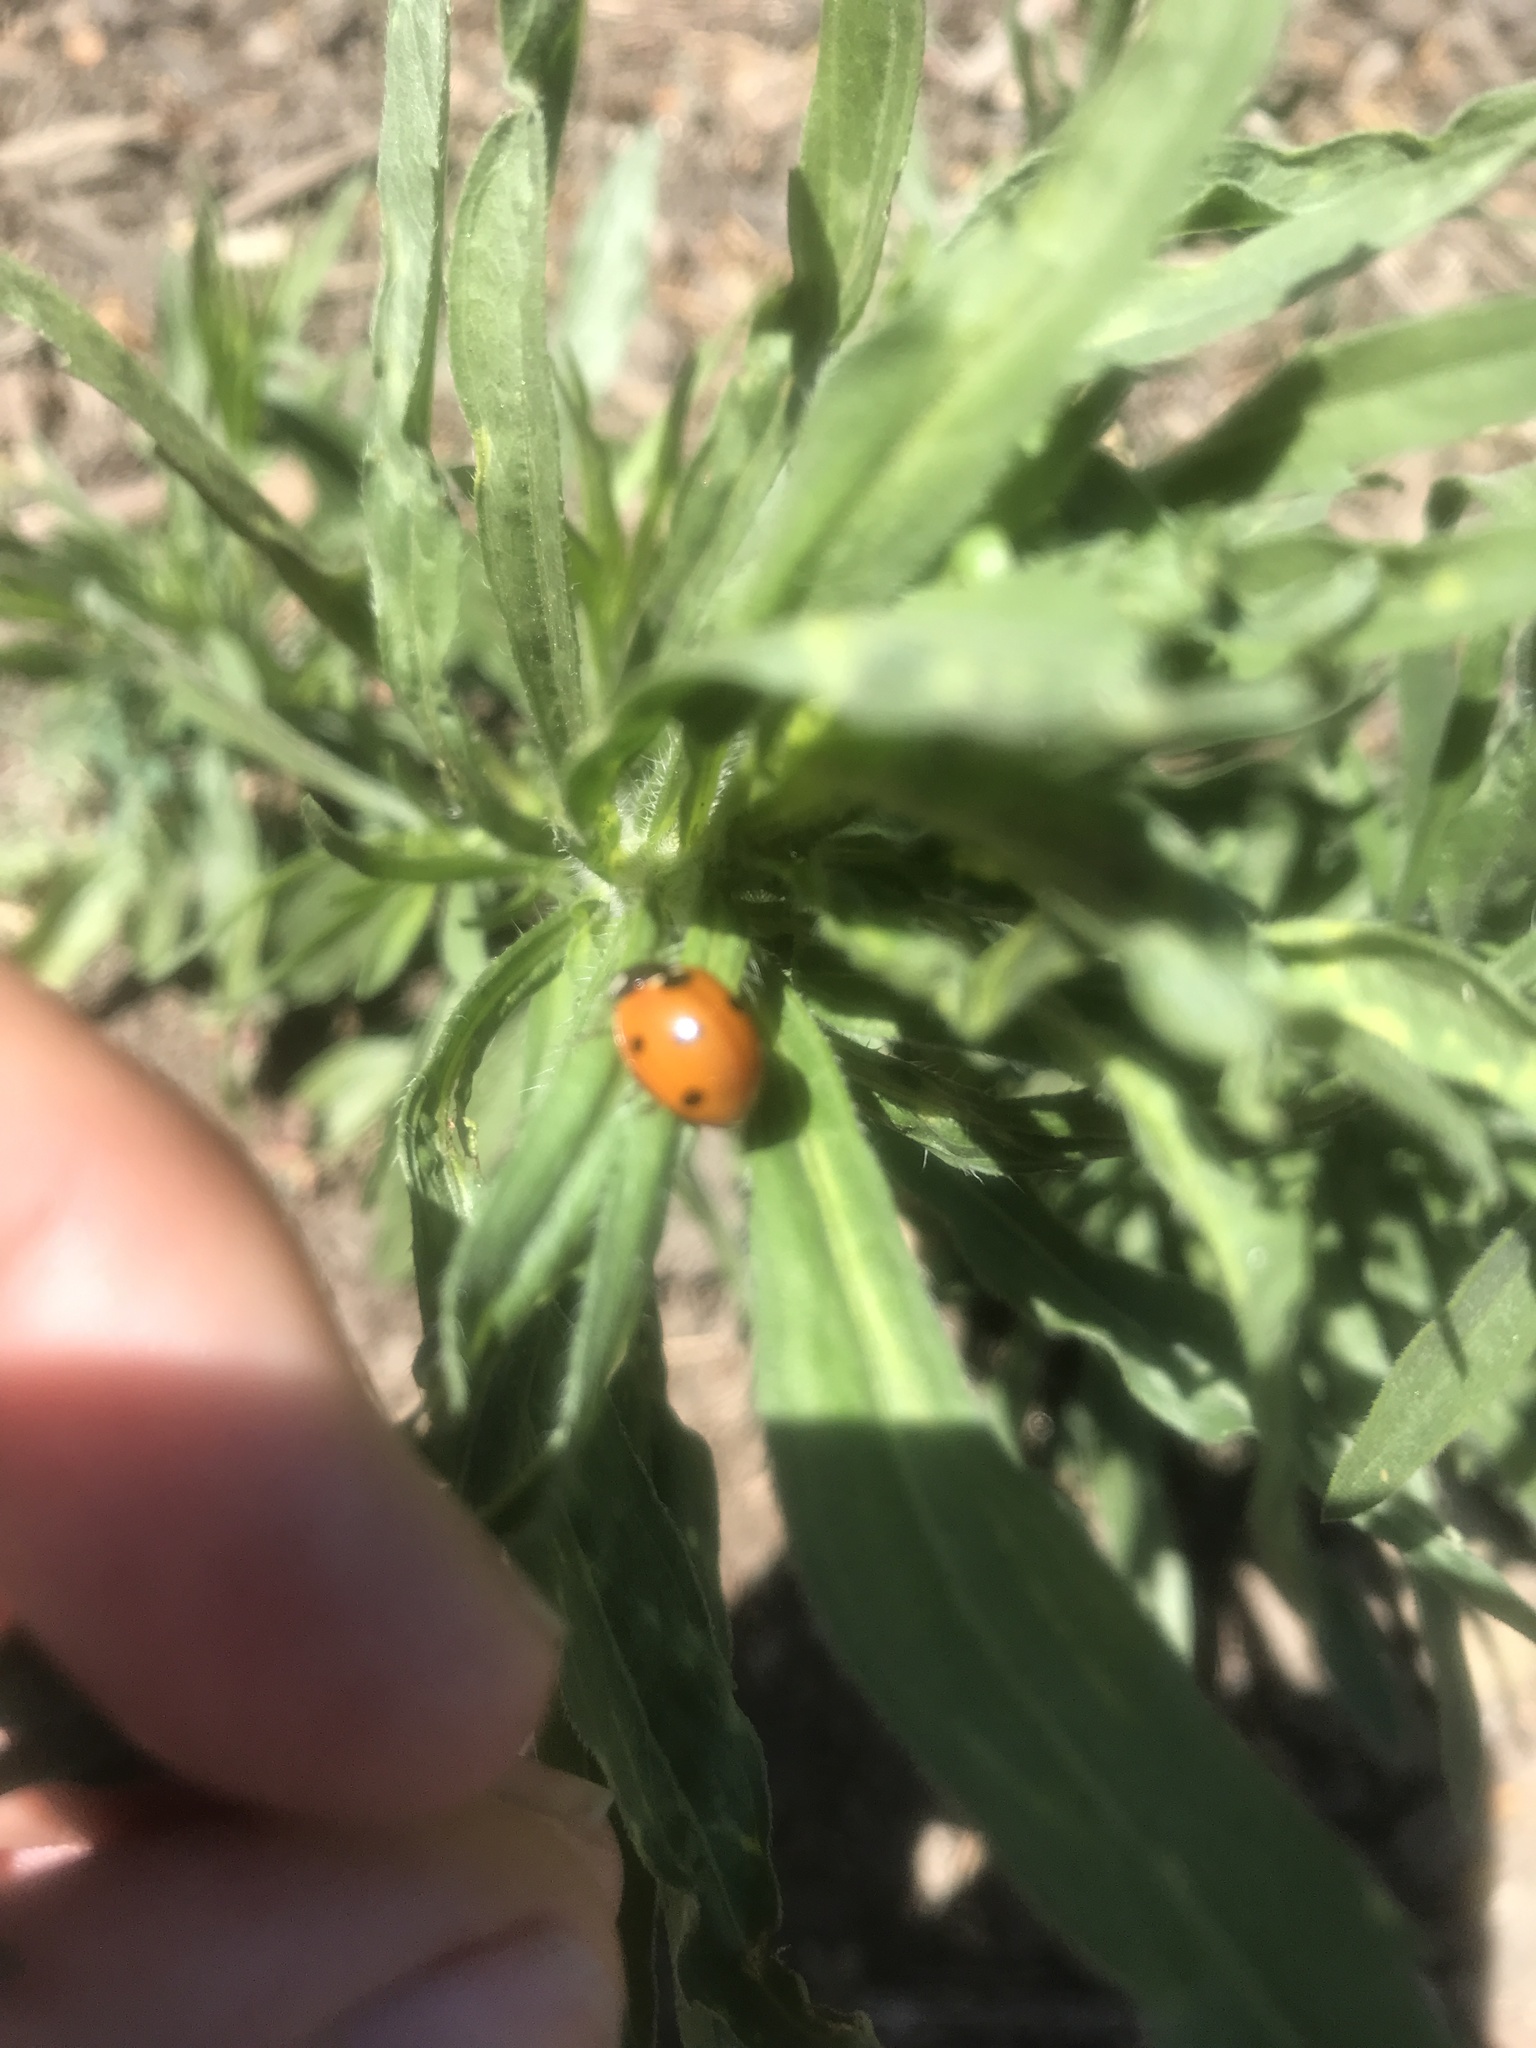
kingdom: Animalia
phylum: Arthropoda
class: Insecta
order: Coleoptera
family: Coccinellidae
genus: Coccinella
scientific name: Coccinella septempunctata
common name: Sevenspotted lady beetle
